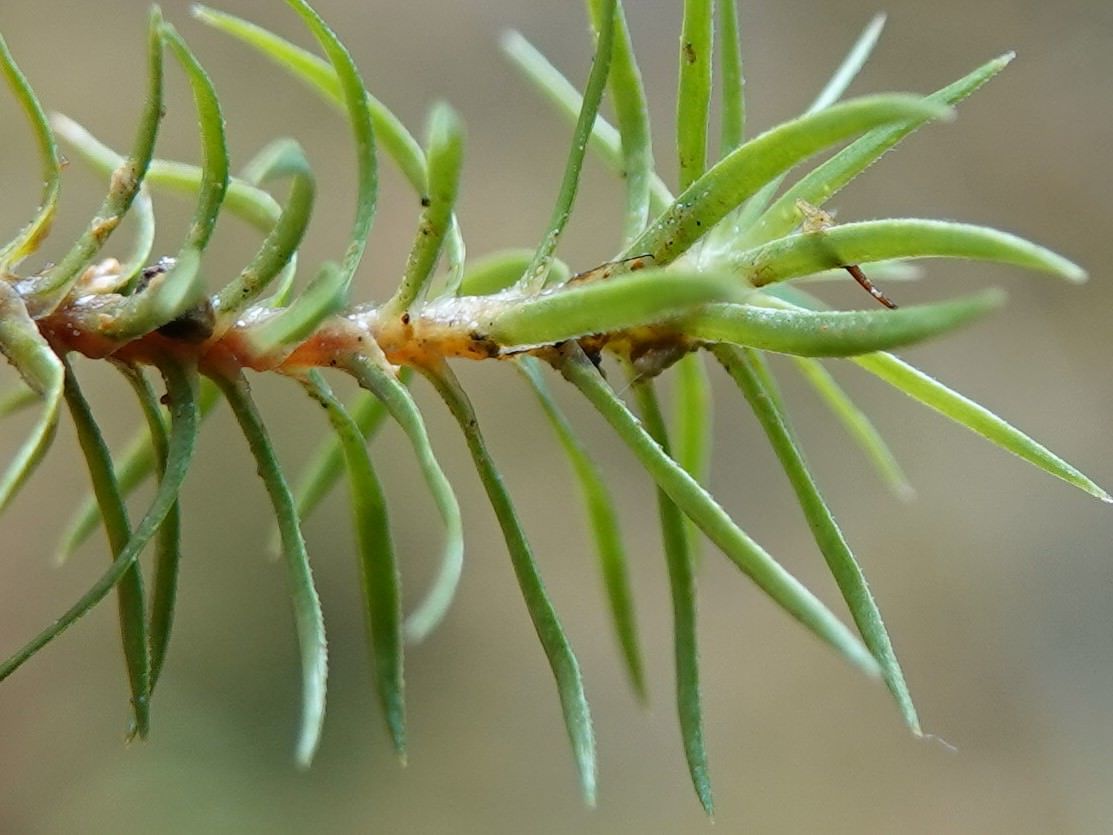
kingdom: Plantae
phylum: Bryophyta
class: Polytrichopsida
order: Polytrichales
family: Polytrichaceae
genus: Polytrichadelphus
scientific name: Polytrichadelphus magellanicus
